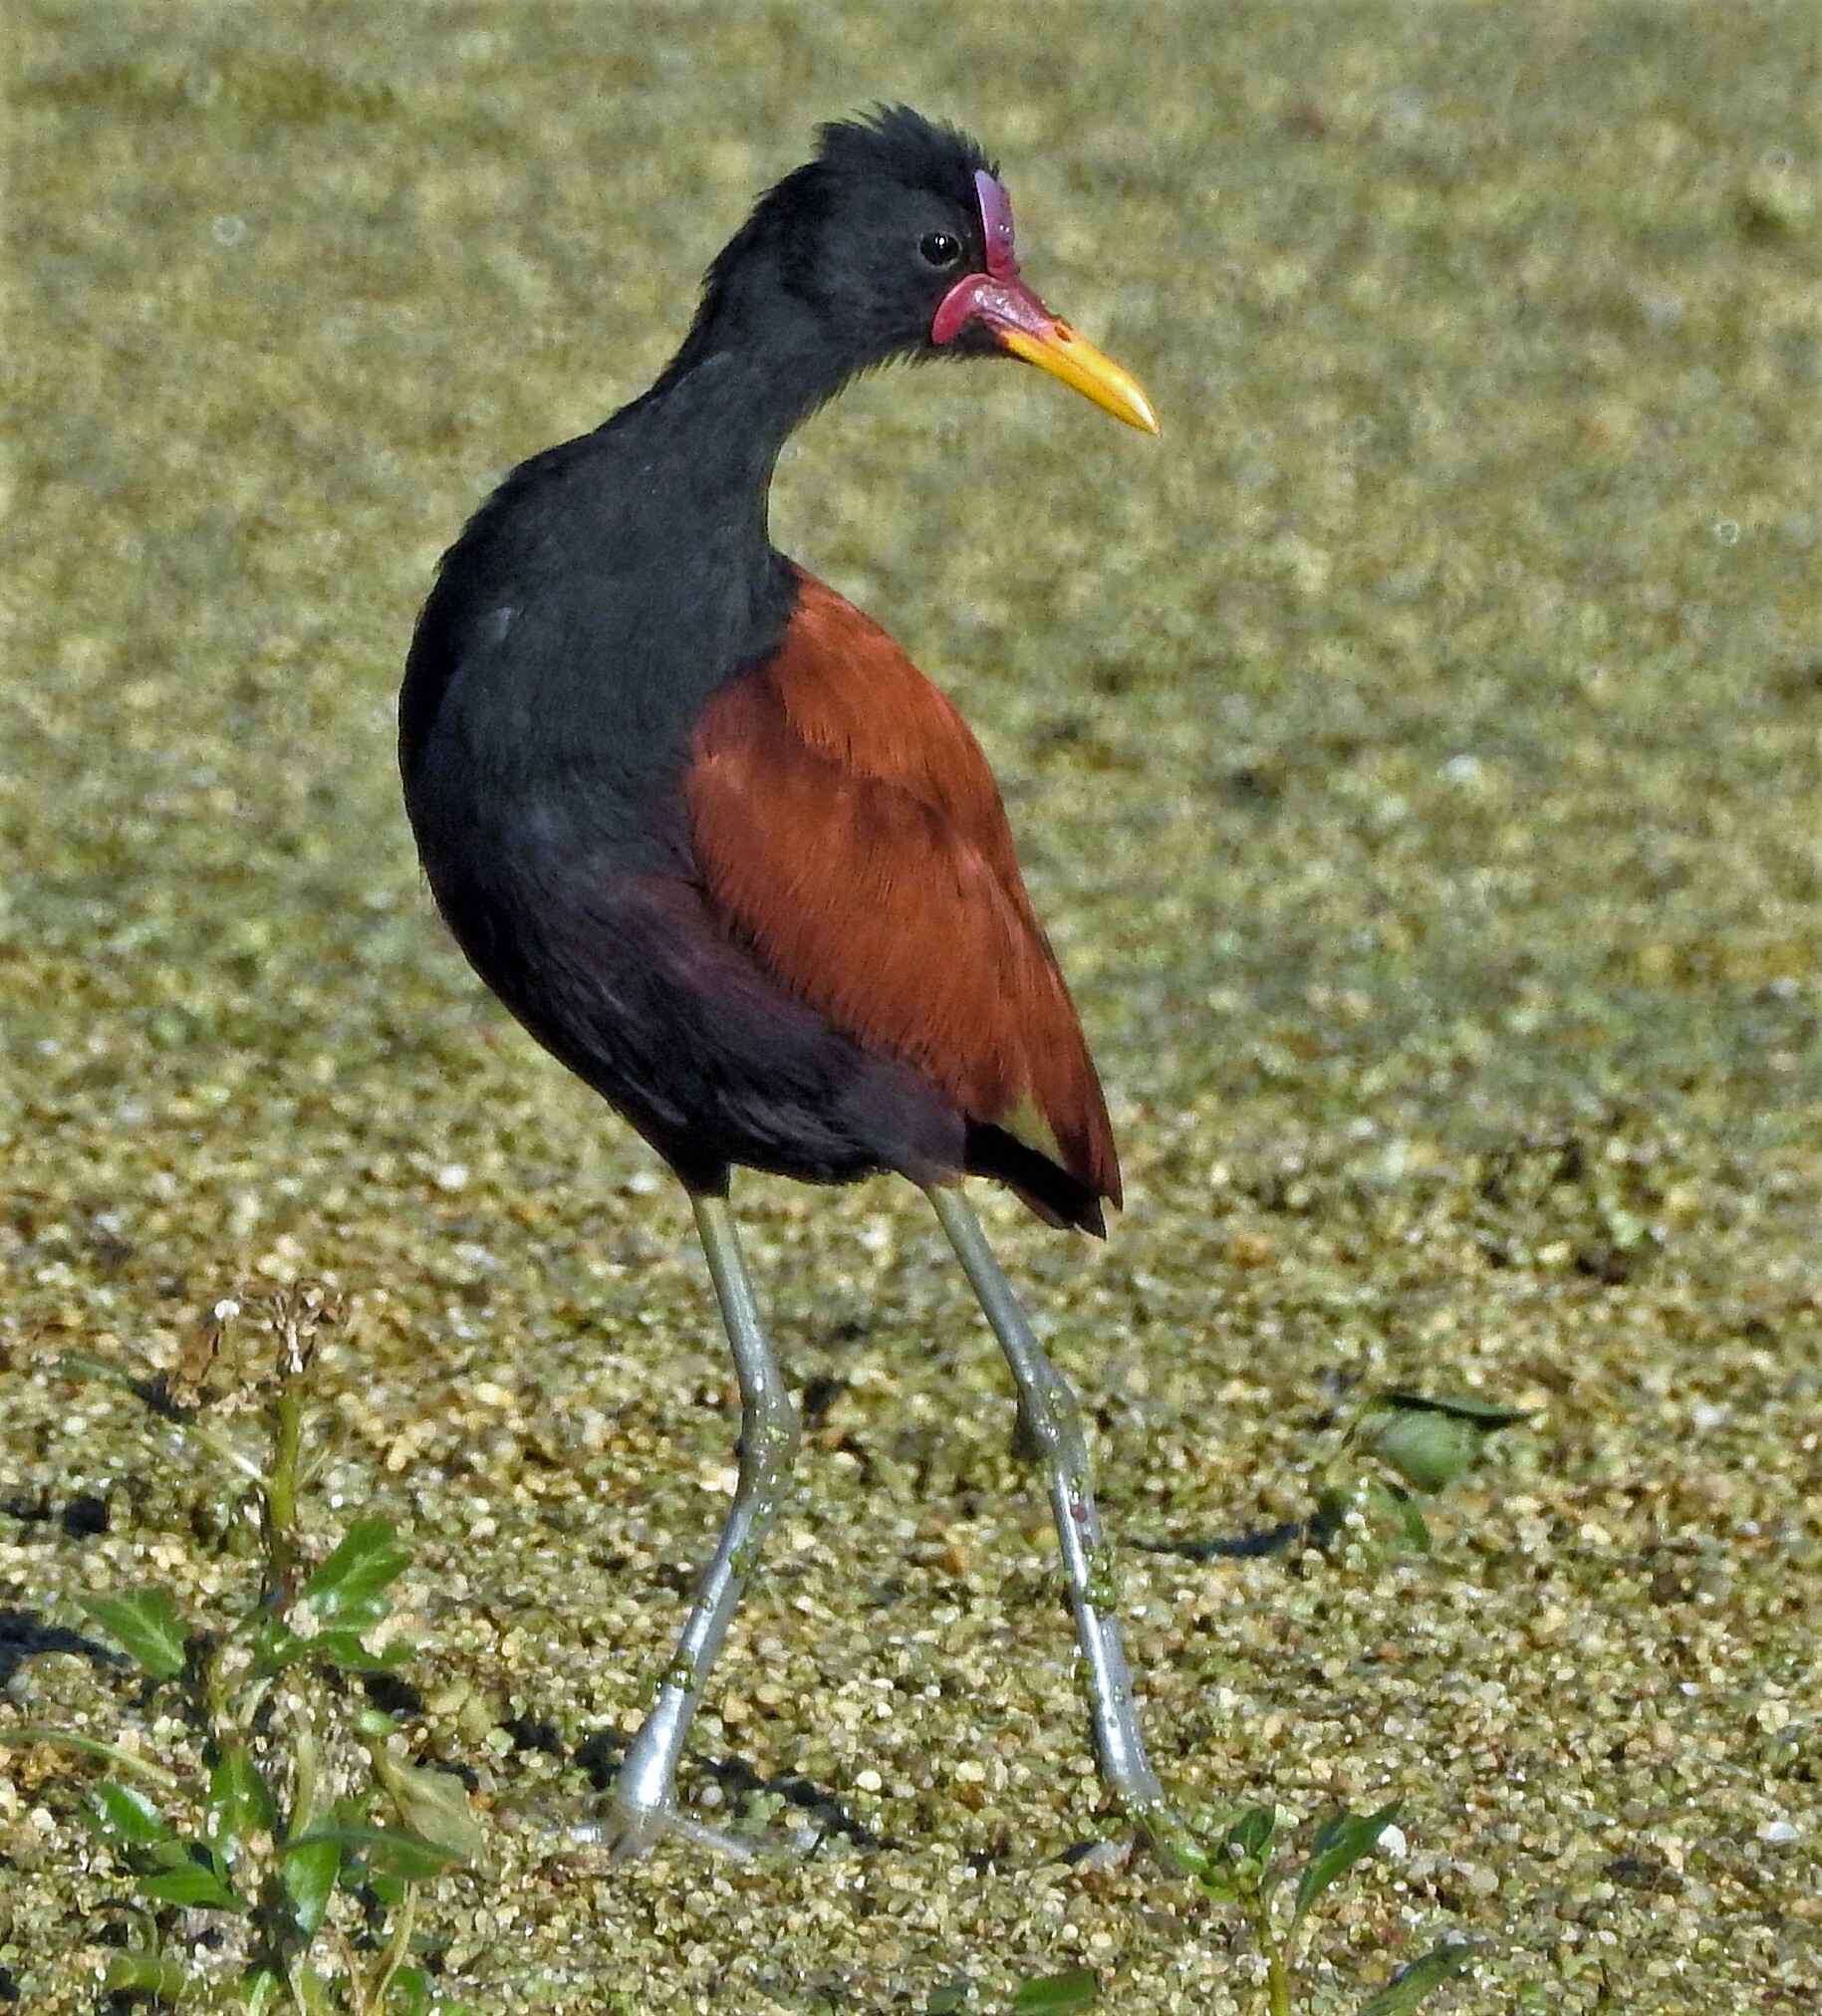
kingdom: Animalia
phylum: Chordata
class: Aves
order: Charadriiformes
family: Jacanidae
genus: Jacana
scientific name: Jacana jacana
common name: Wattled jacana
